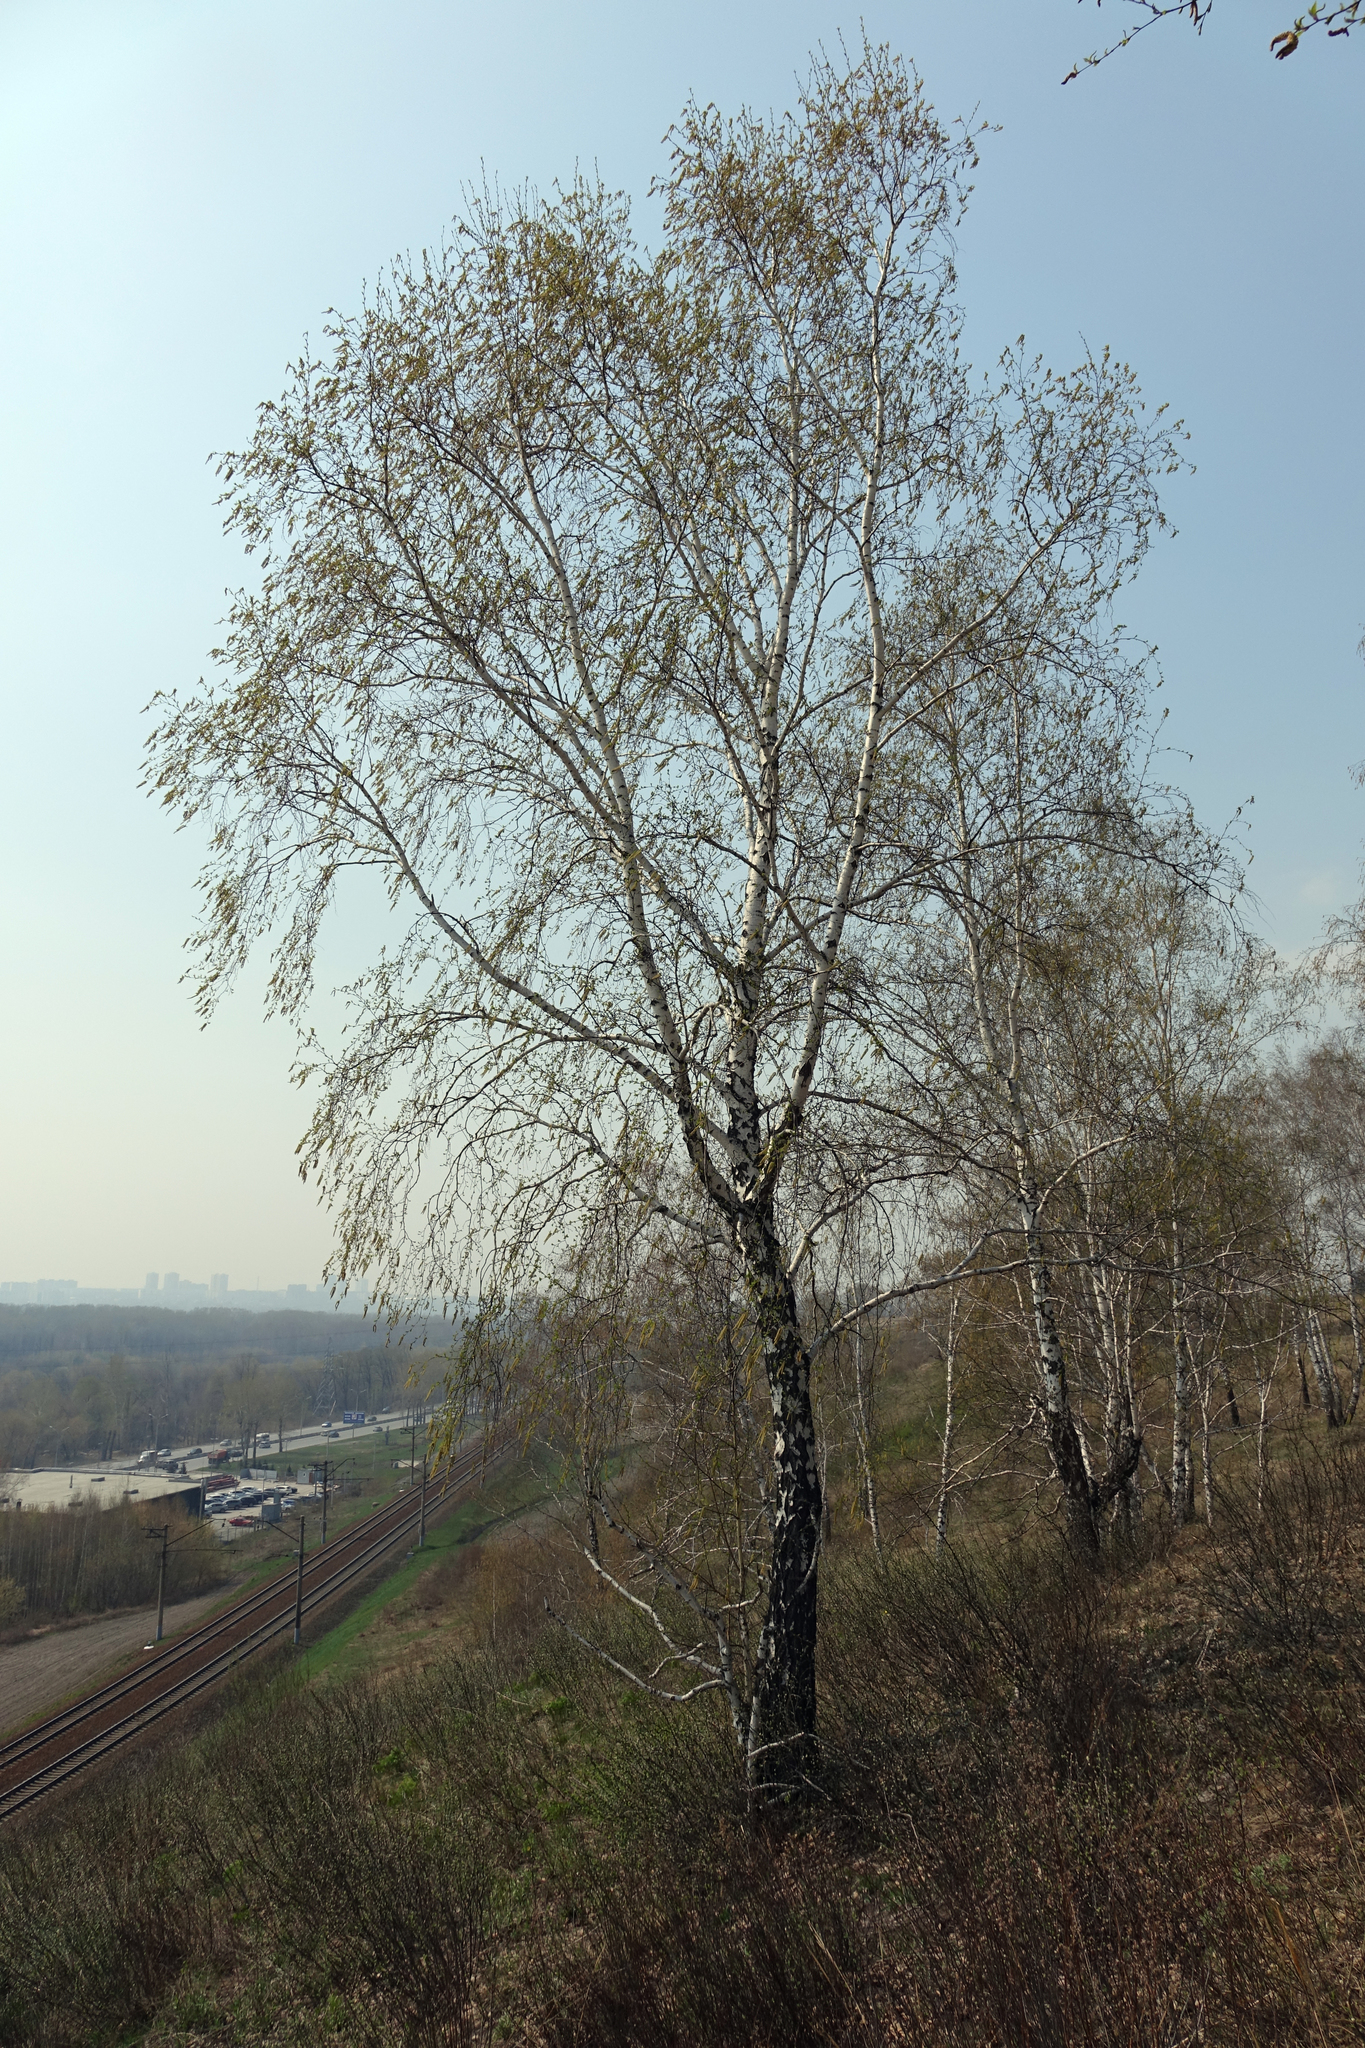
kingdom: Plantae
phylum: Tracheophyta
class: Magnoliopsida
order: Fagales
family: Betulaceae
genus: Betula
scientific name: Betula pendula
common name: Silver birch
